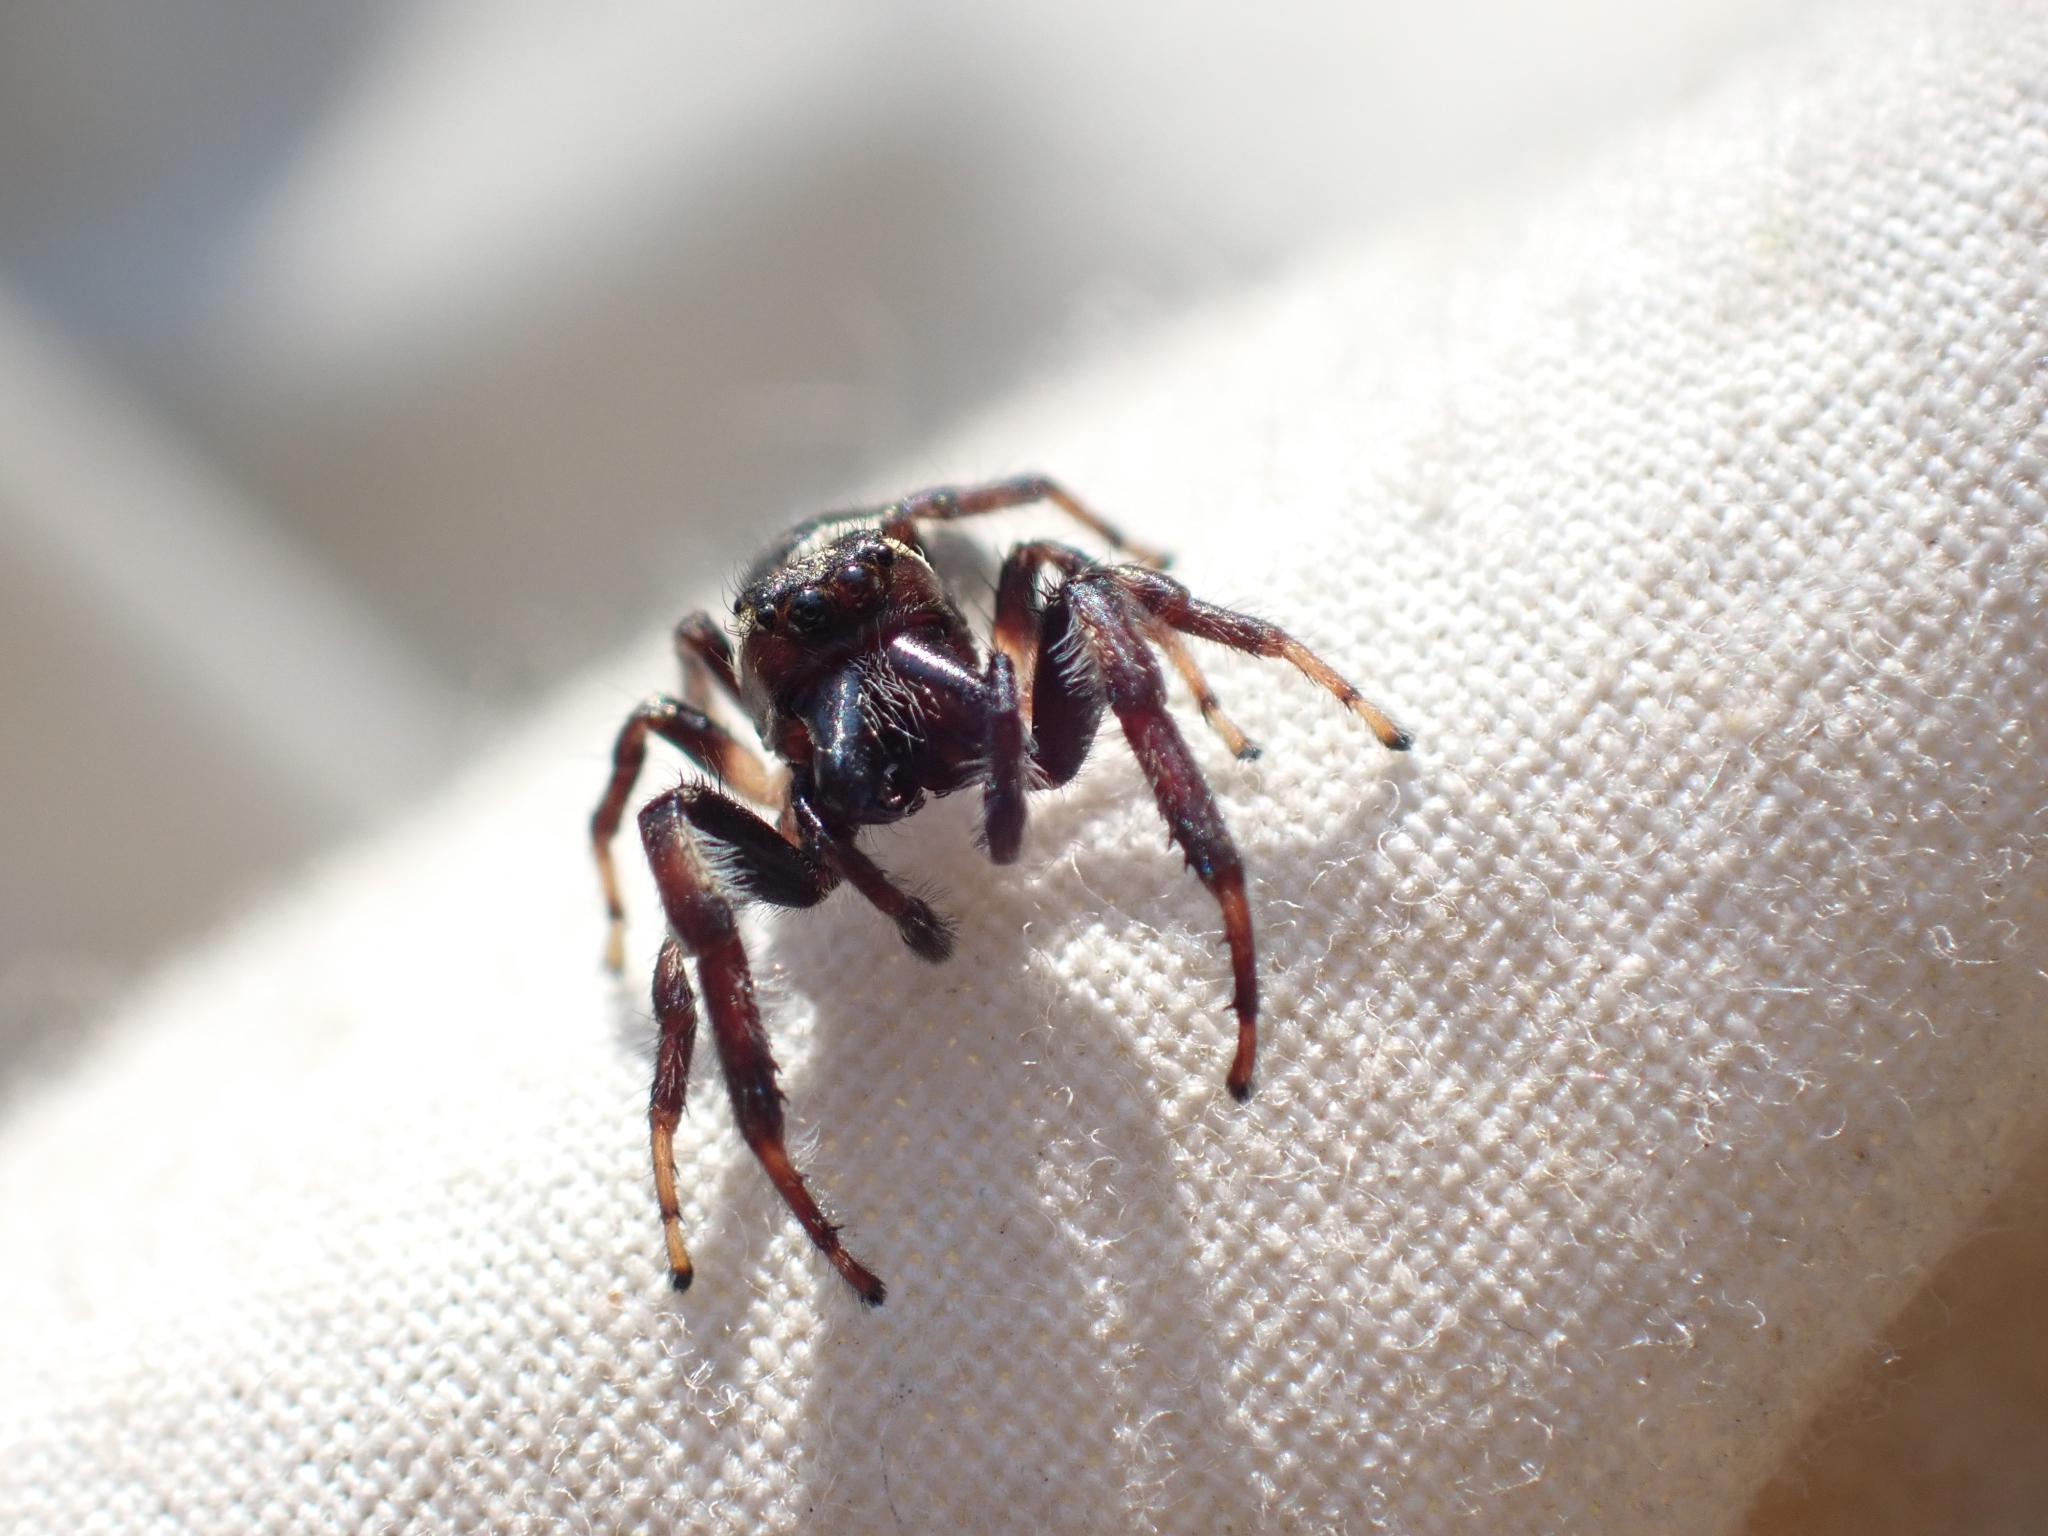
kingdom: Animalia
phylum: Arthropoda
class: Arachnida
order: Araneae
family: Salticidae
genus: Eris
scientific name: Eris militaris
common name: Bronze jumper
